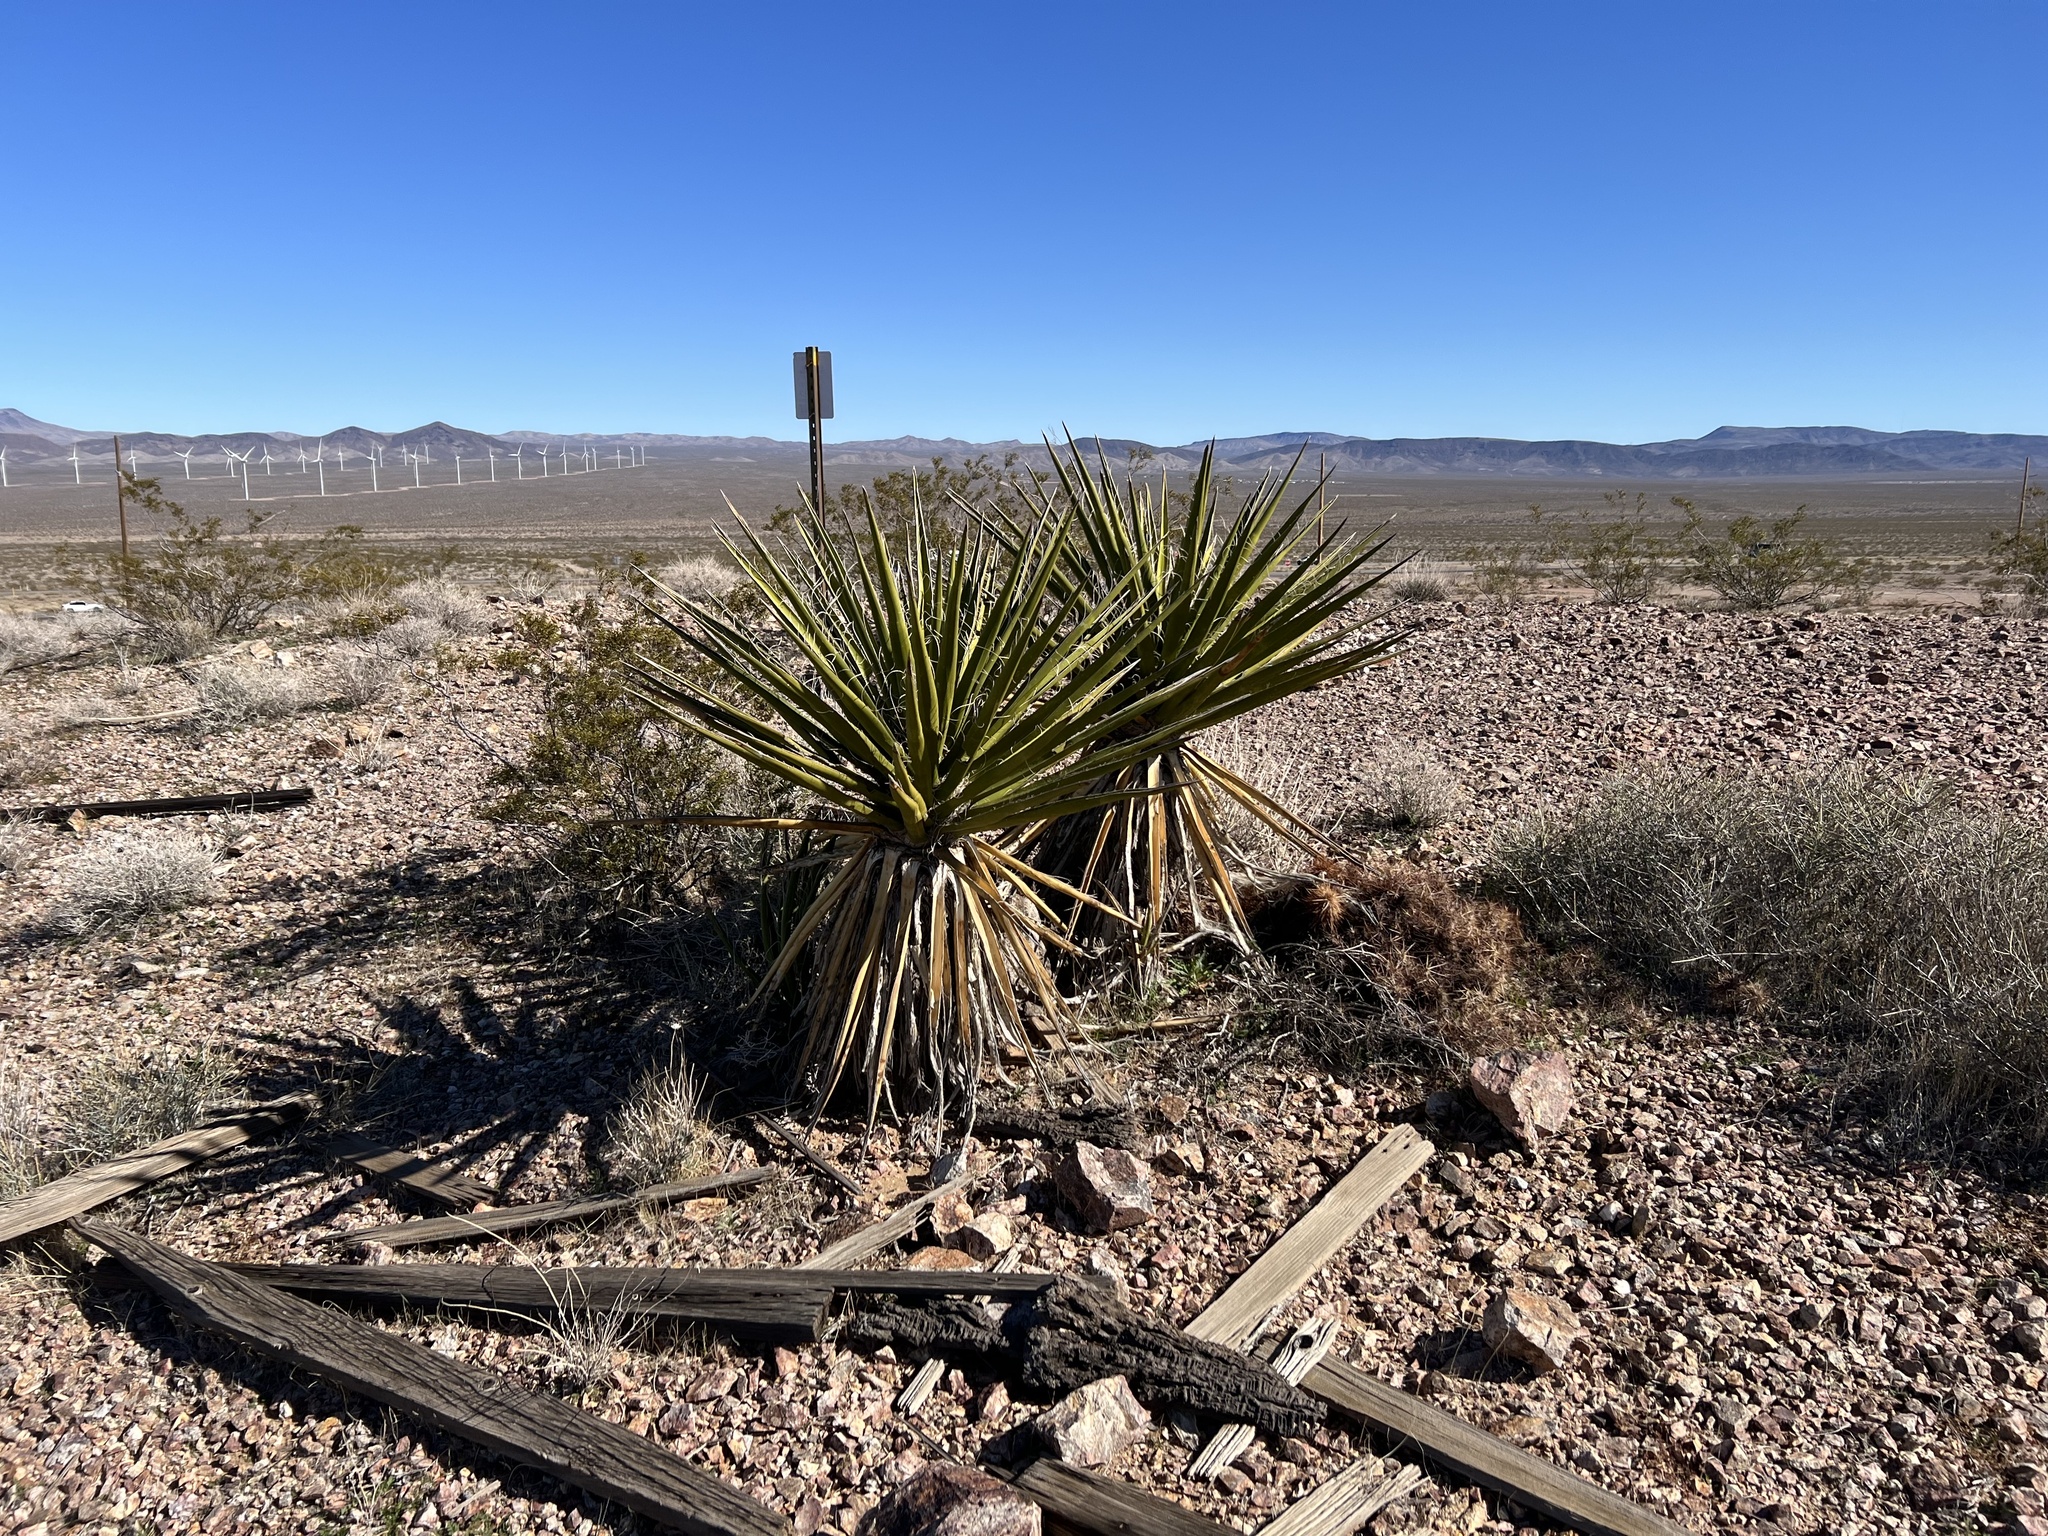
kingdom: Plantae
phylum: Tracheophyta
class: Liliopsida
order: Asparagales
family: Asparagaceae
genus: Yucca
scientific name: Yucca schidigera
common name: Mojave yucca
